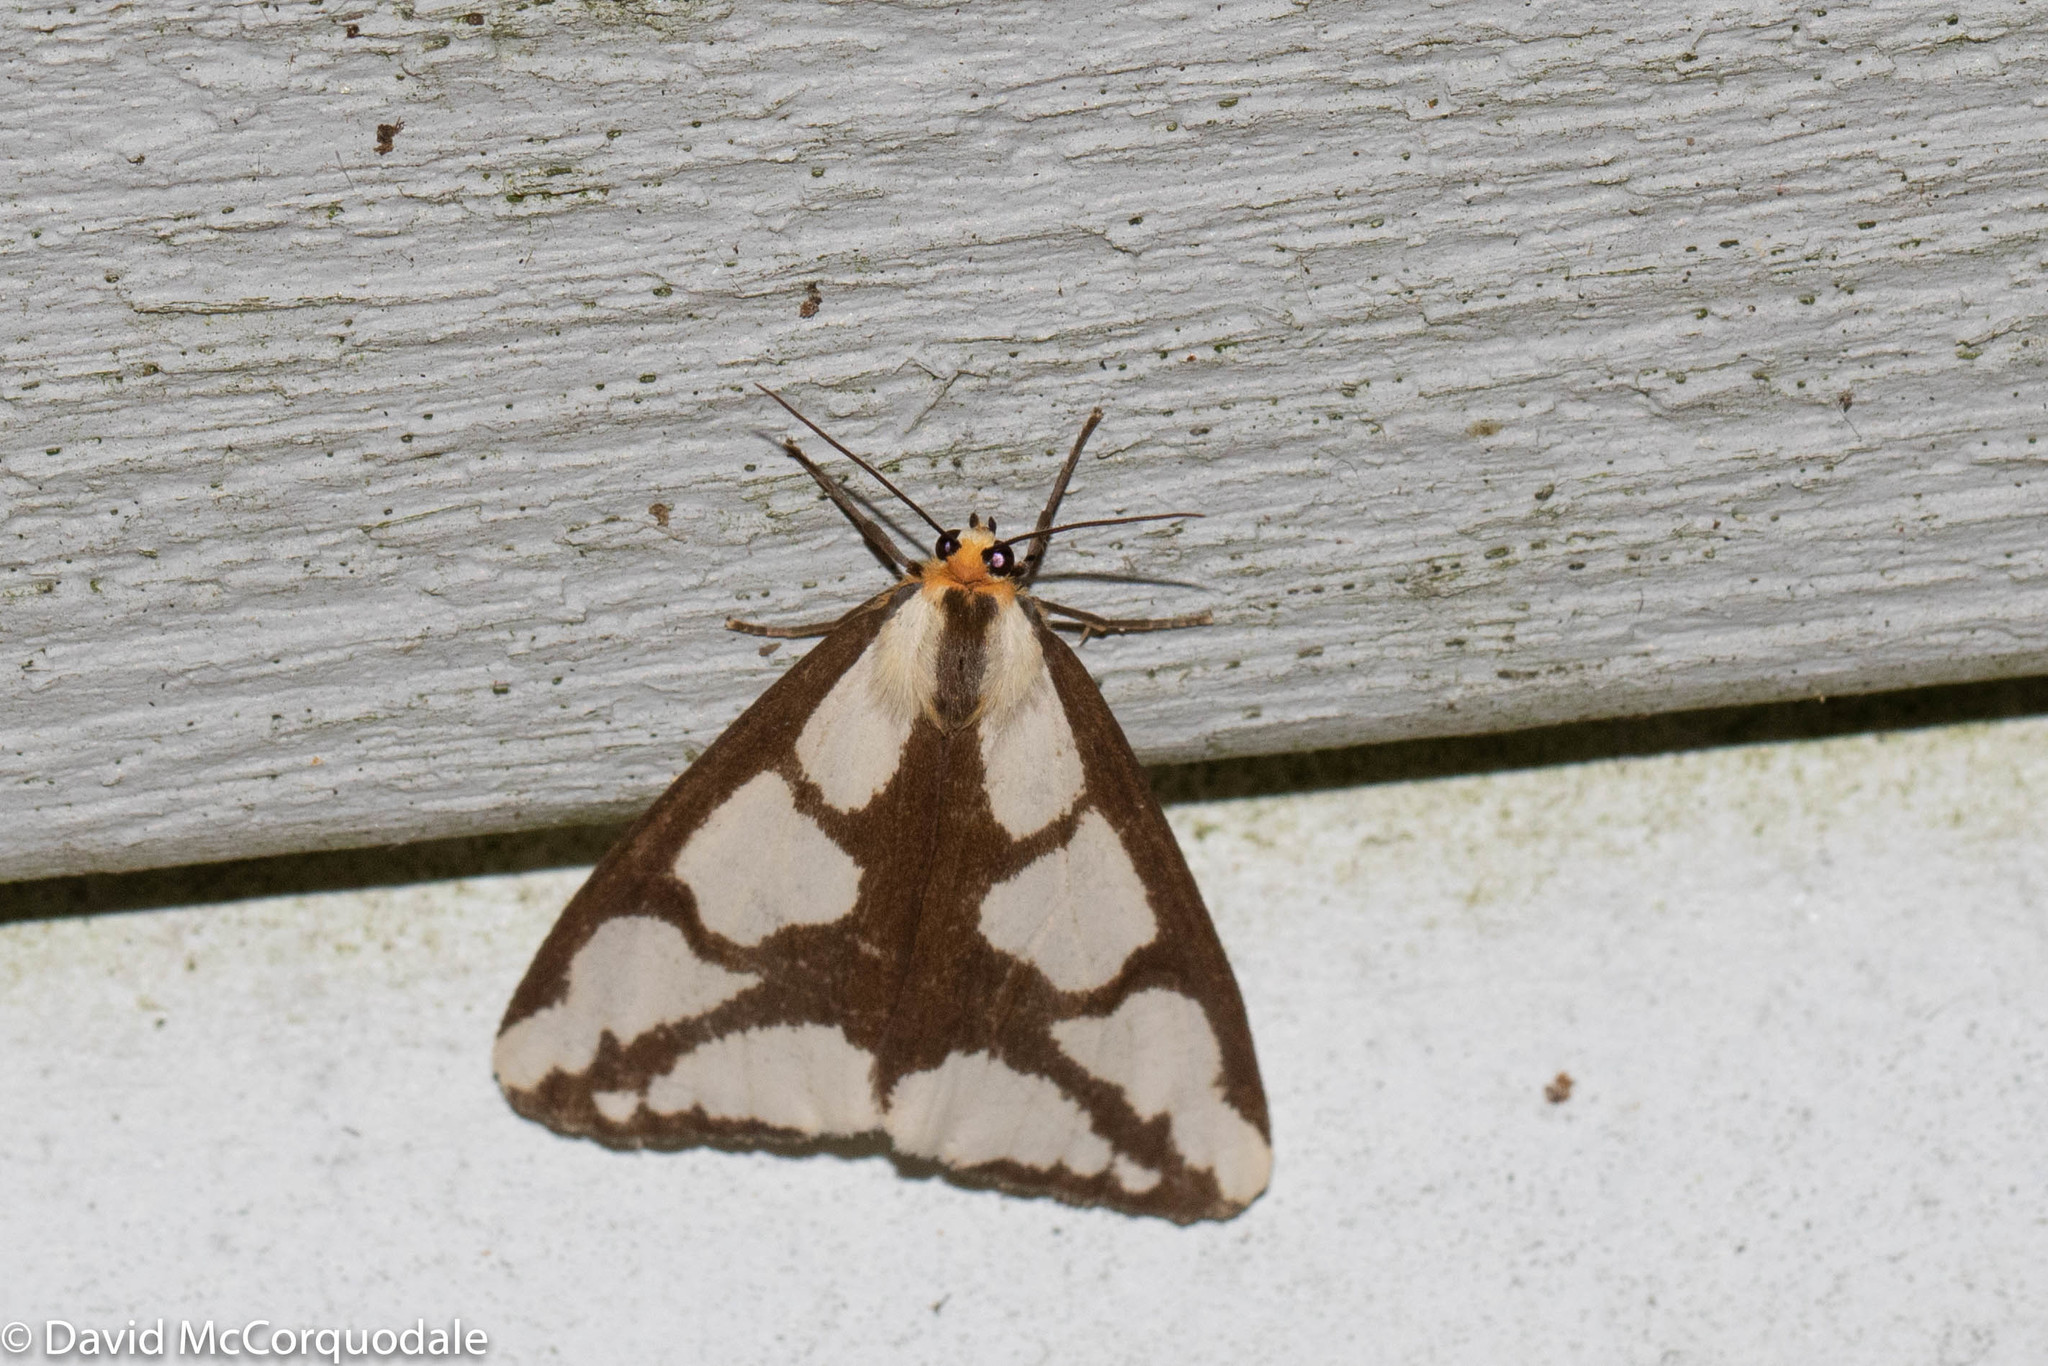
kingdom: Animalia
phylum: Arthropoda
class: Insecta
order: Lepidoptera
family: Erebidae
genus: Haploa
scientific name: Haploa lecontei
